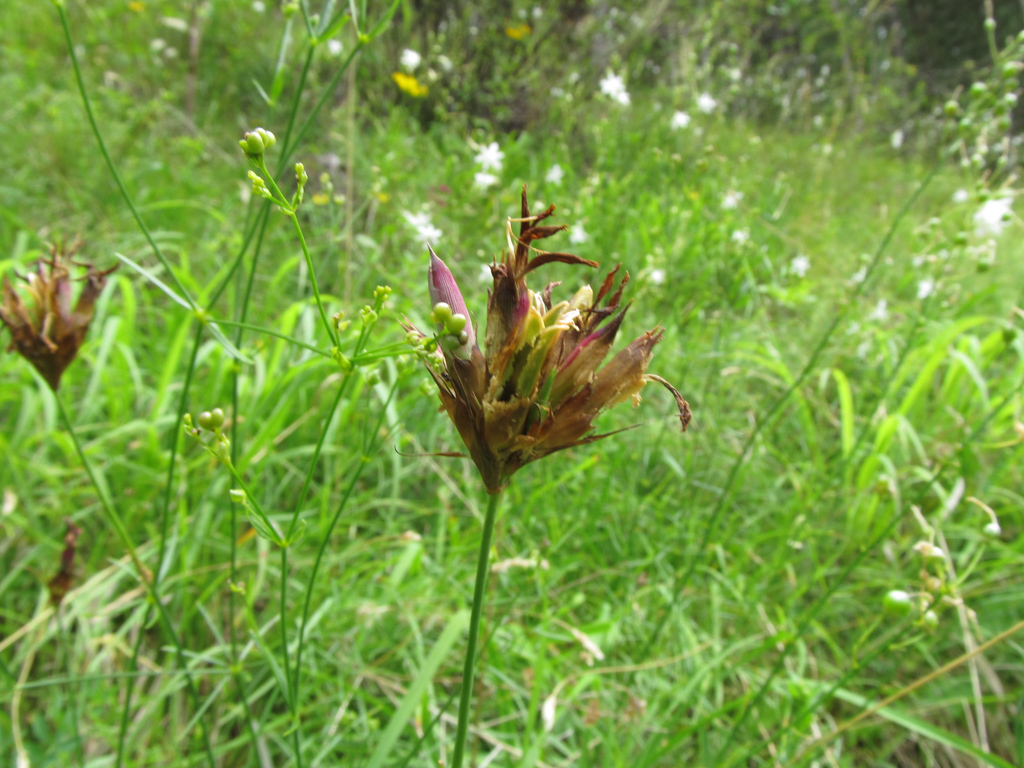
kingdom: Plantae
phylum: Tracheophyta
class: Magnoliopsida
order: Caryophyllales
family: Caryophyllaceae
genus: Dianthus
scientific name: Dianthus carthusianorum
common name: Carthusian pink
